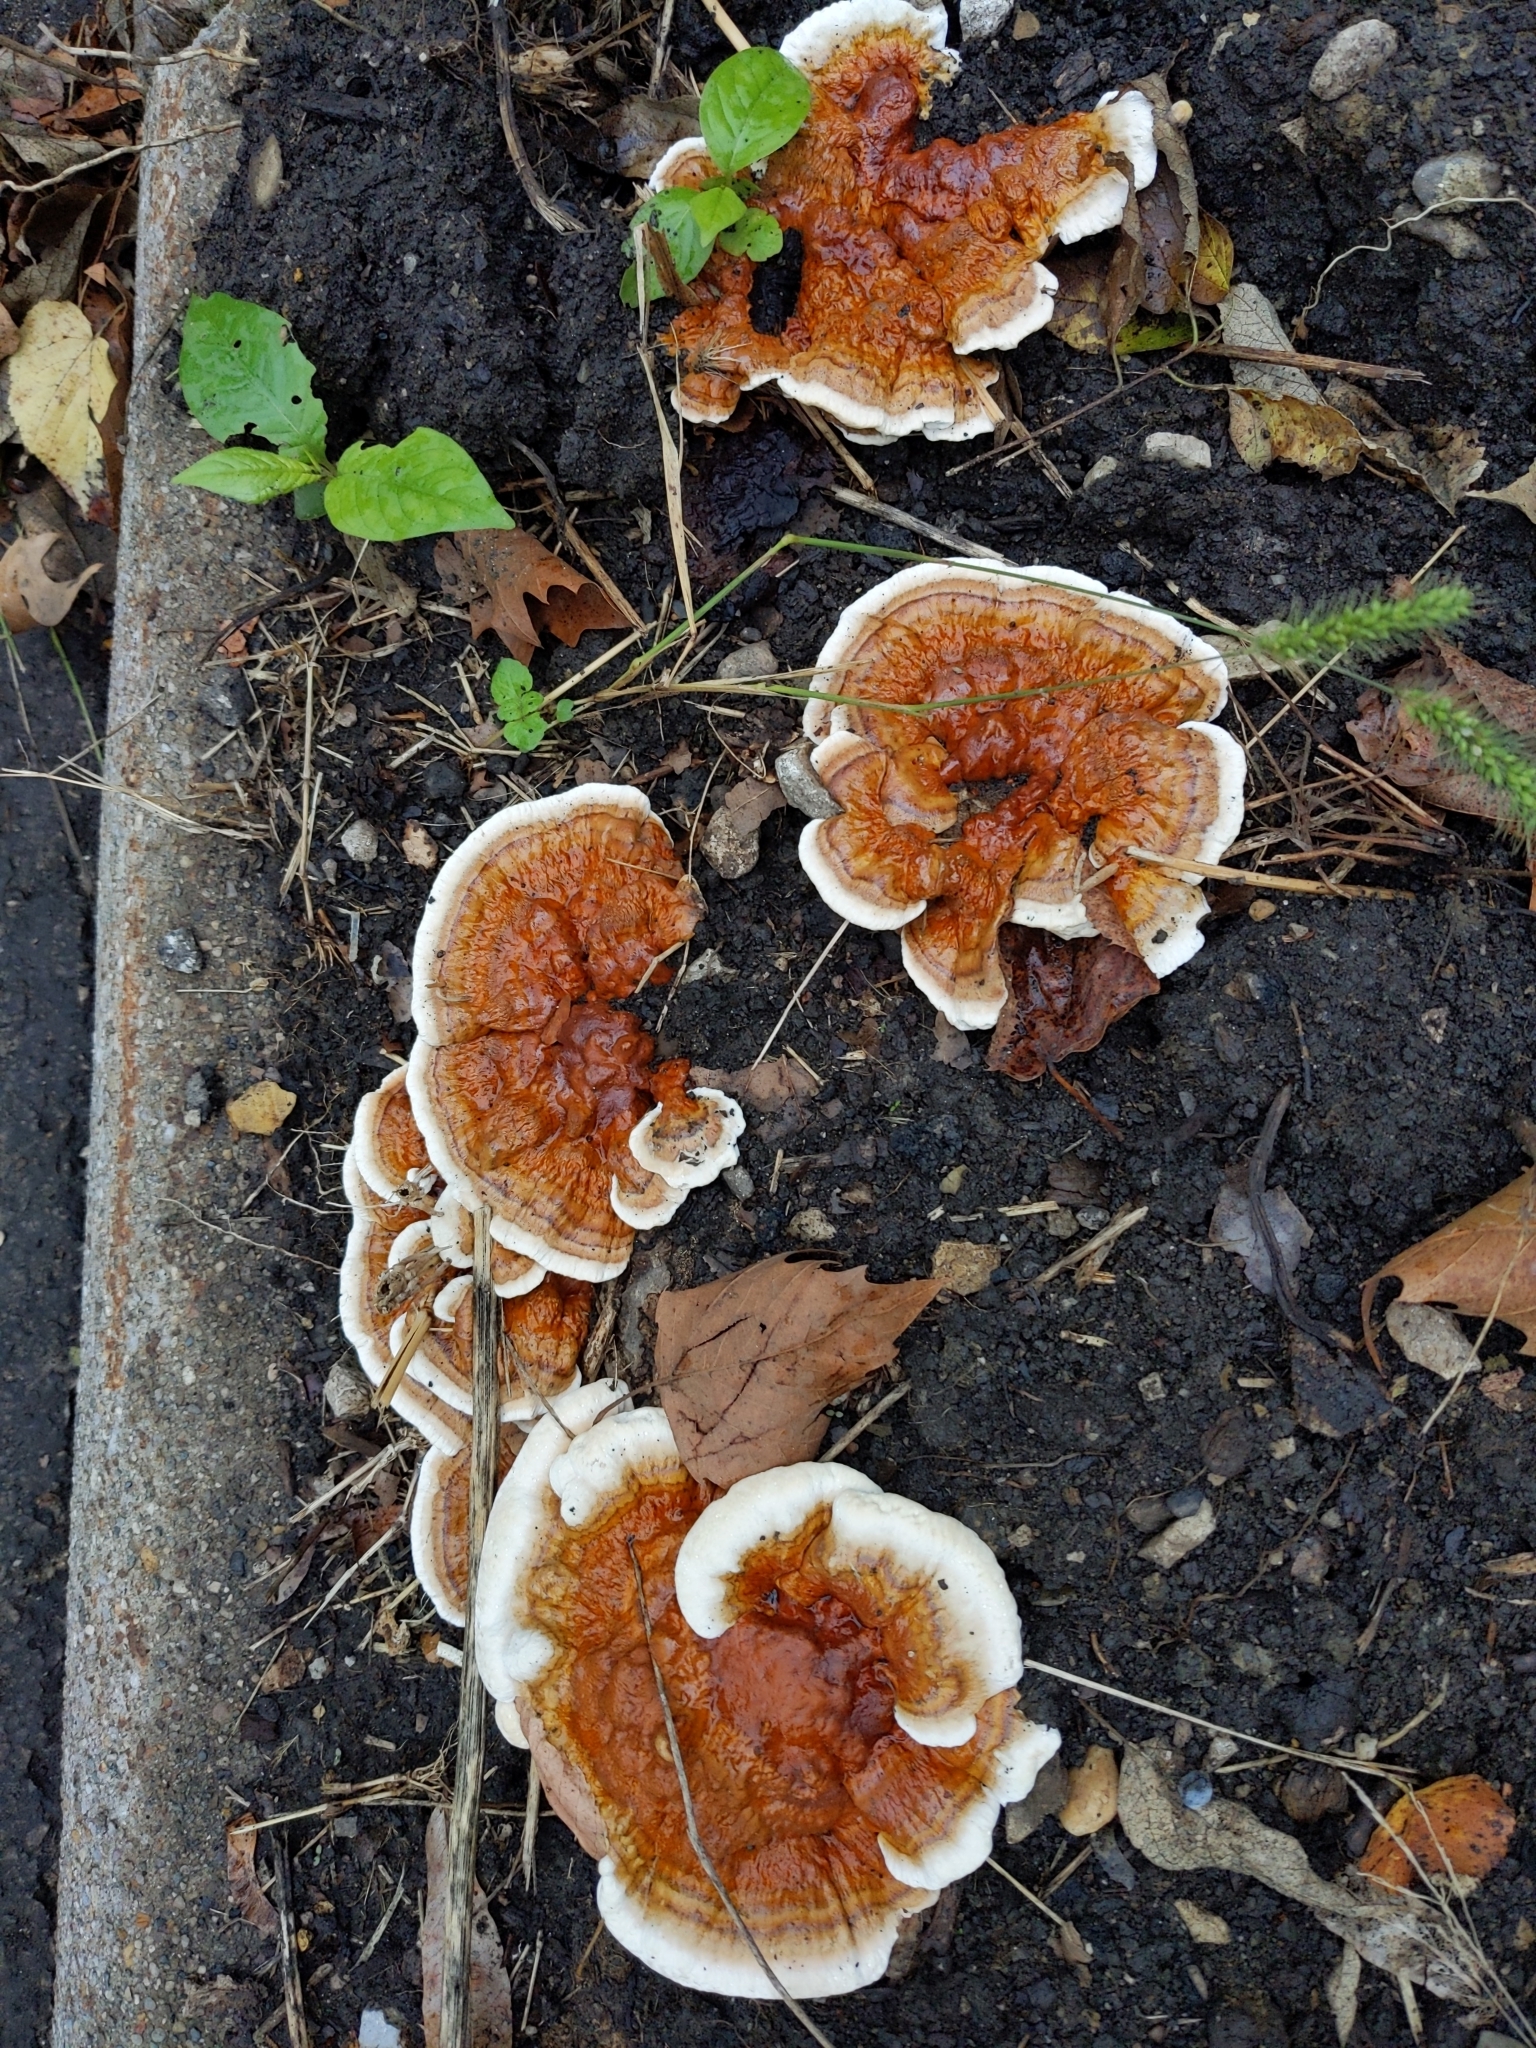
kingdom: Fungi
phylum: Basidiomycota
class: Agaricomycetes
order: Polyporales
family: Polyporaceae
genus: Ganoderma
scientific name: Ganoderma resinaceum
